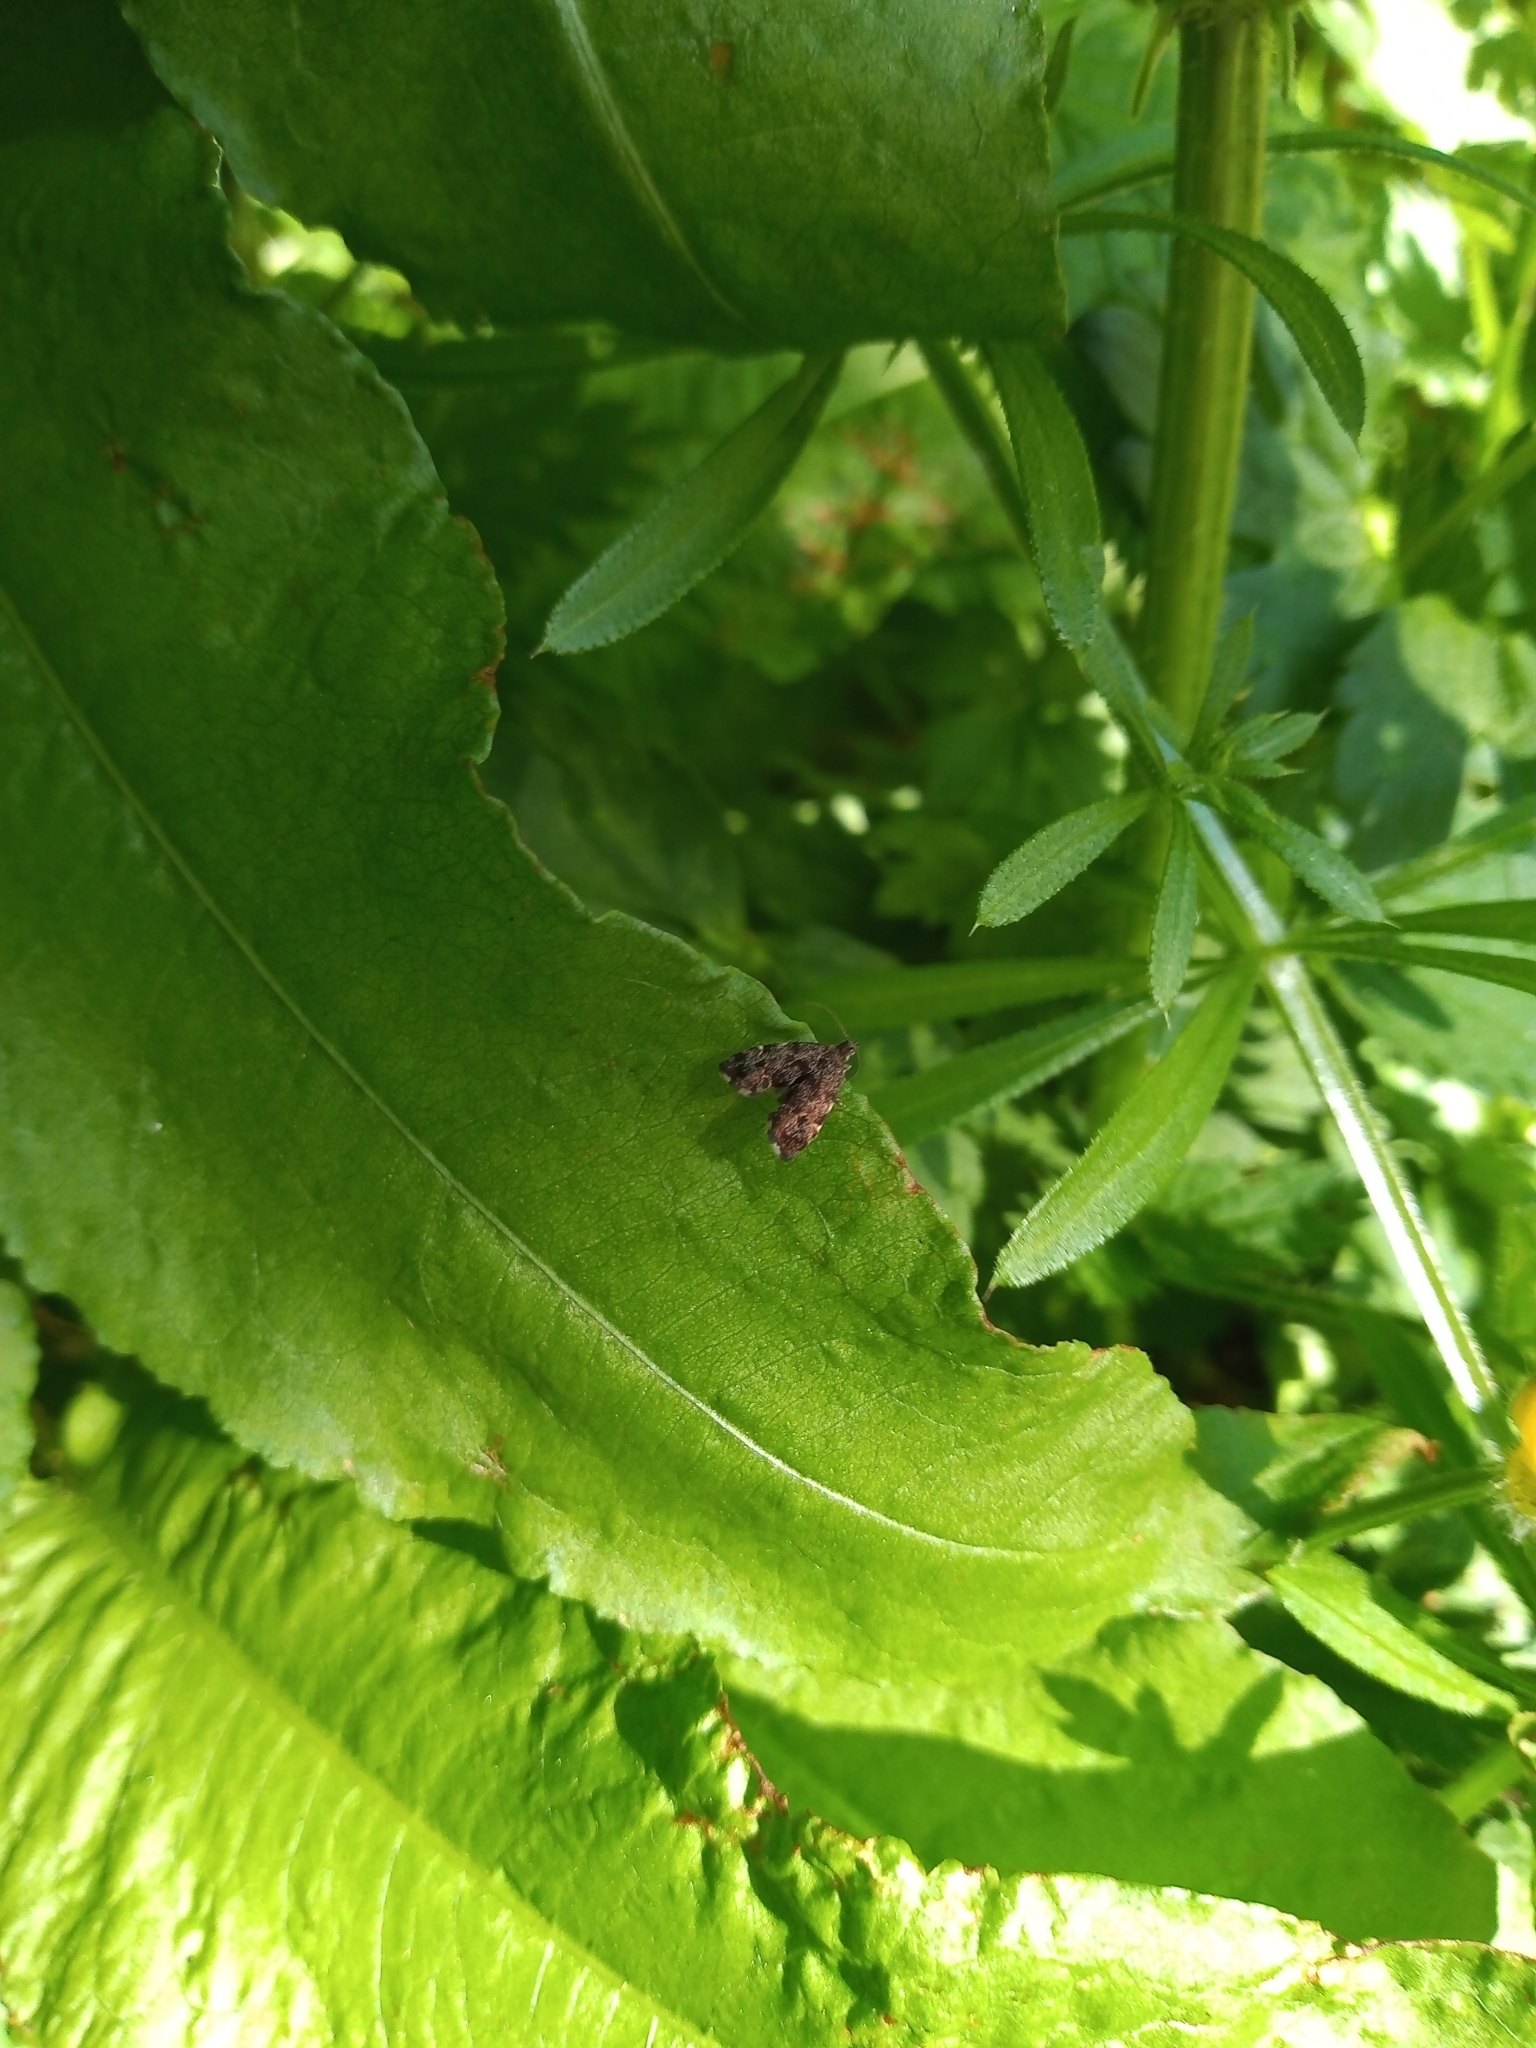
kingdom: Animalia
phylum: Arthropoda
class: Insecta
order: Lepidoptera
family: Choreutidae
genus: Anthophila
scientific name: Anthophila fabriciana
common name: Nettle-tap
